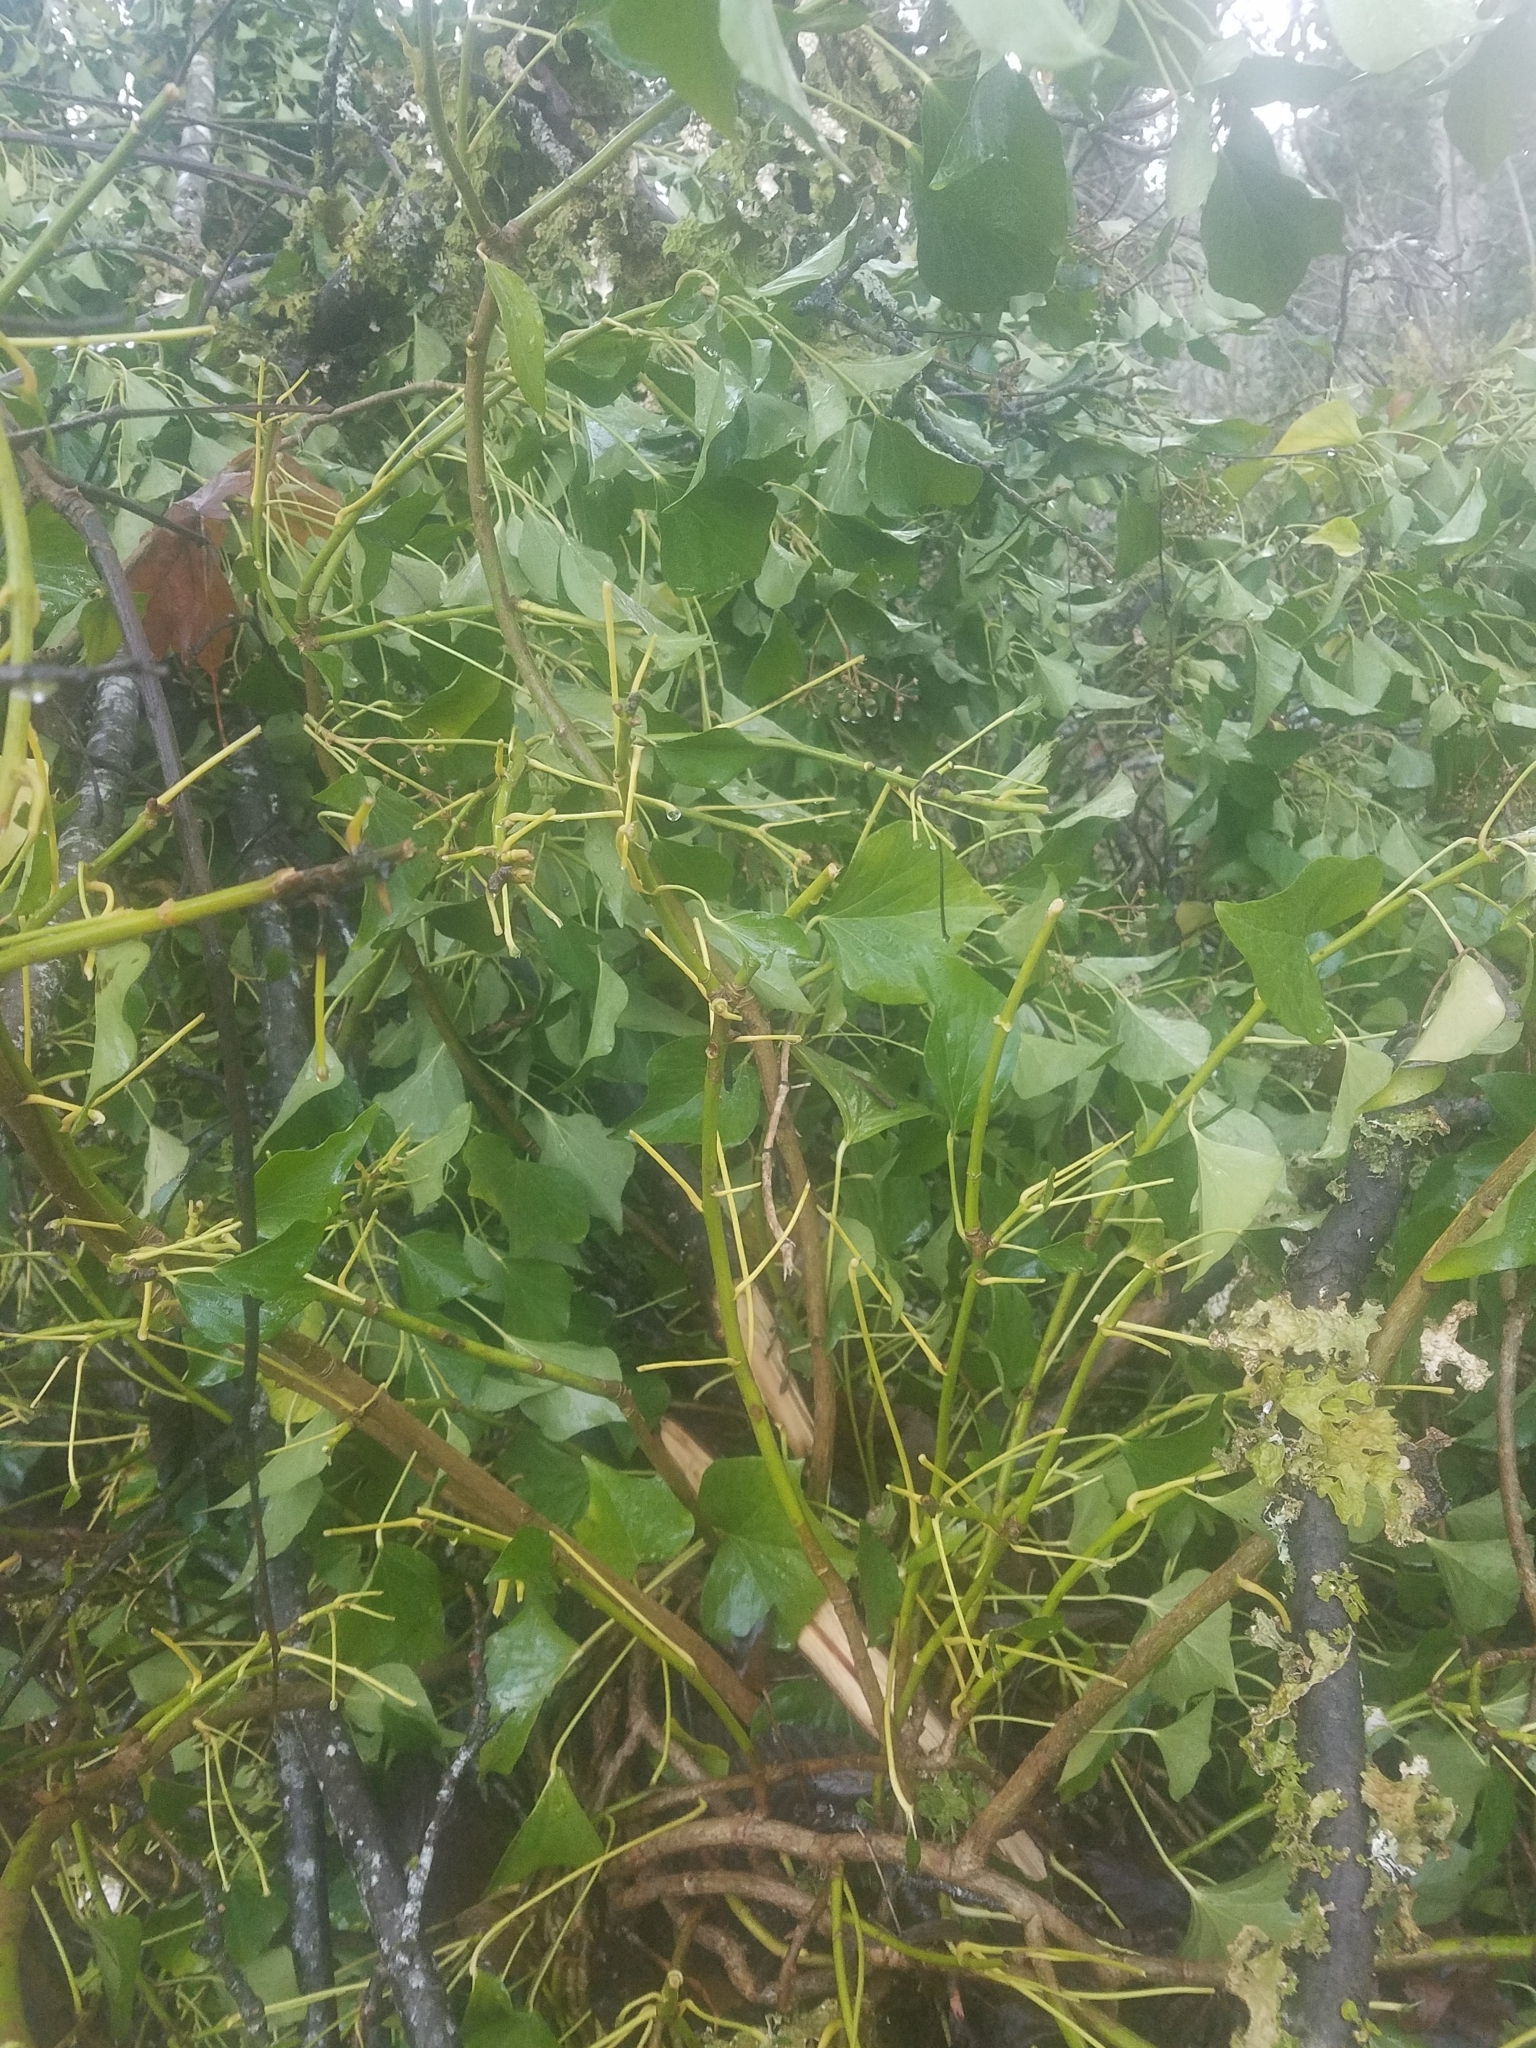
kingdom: Plantae
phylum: Tracheophyta
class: Magnoliopsida
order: Apiales
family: Araliaceae
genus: Hedera
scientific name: Hedera helix
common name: Ivy
